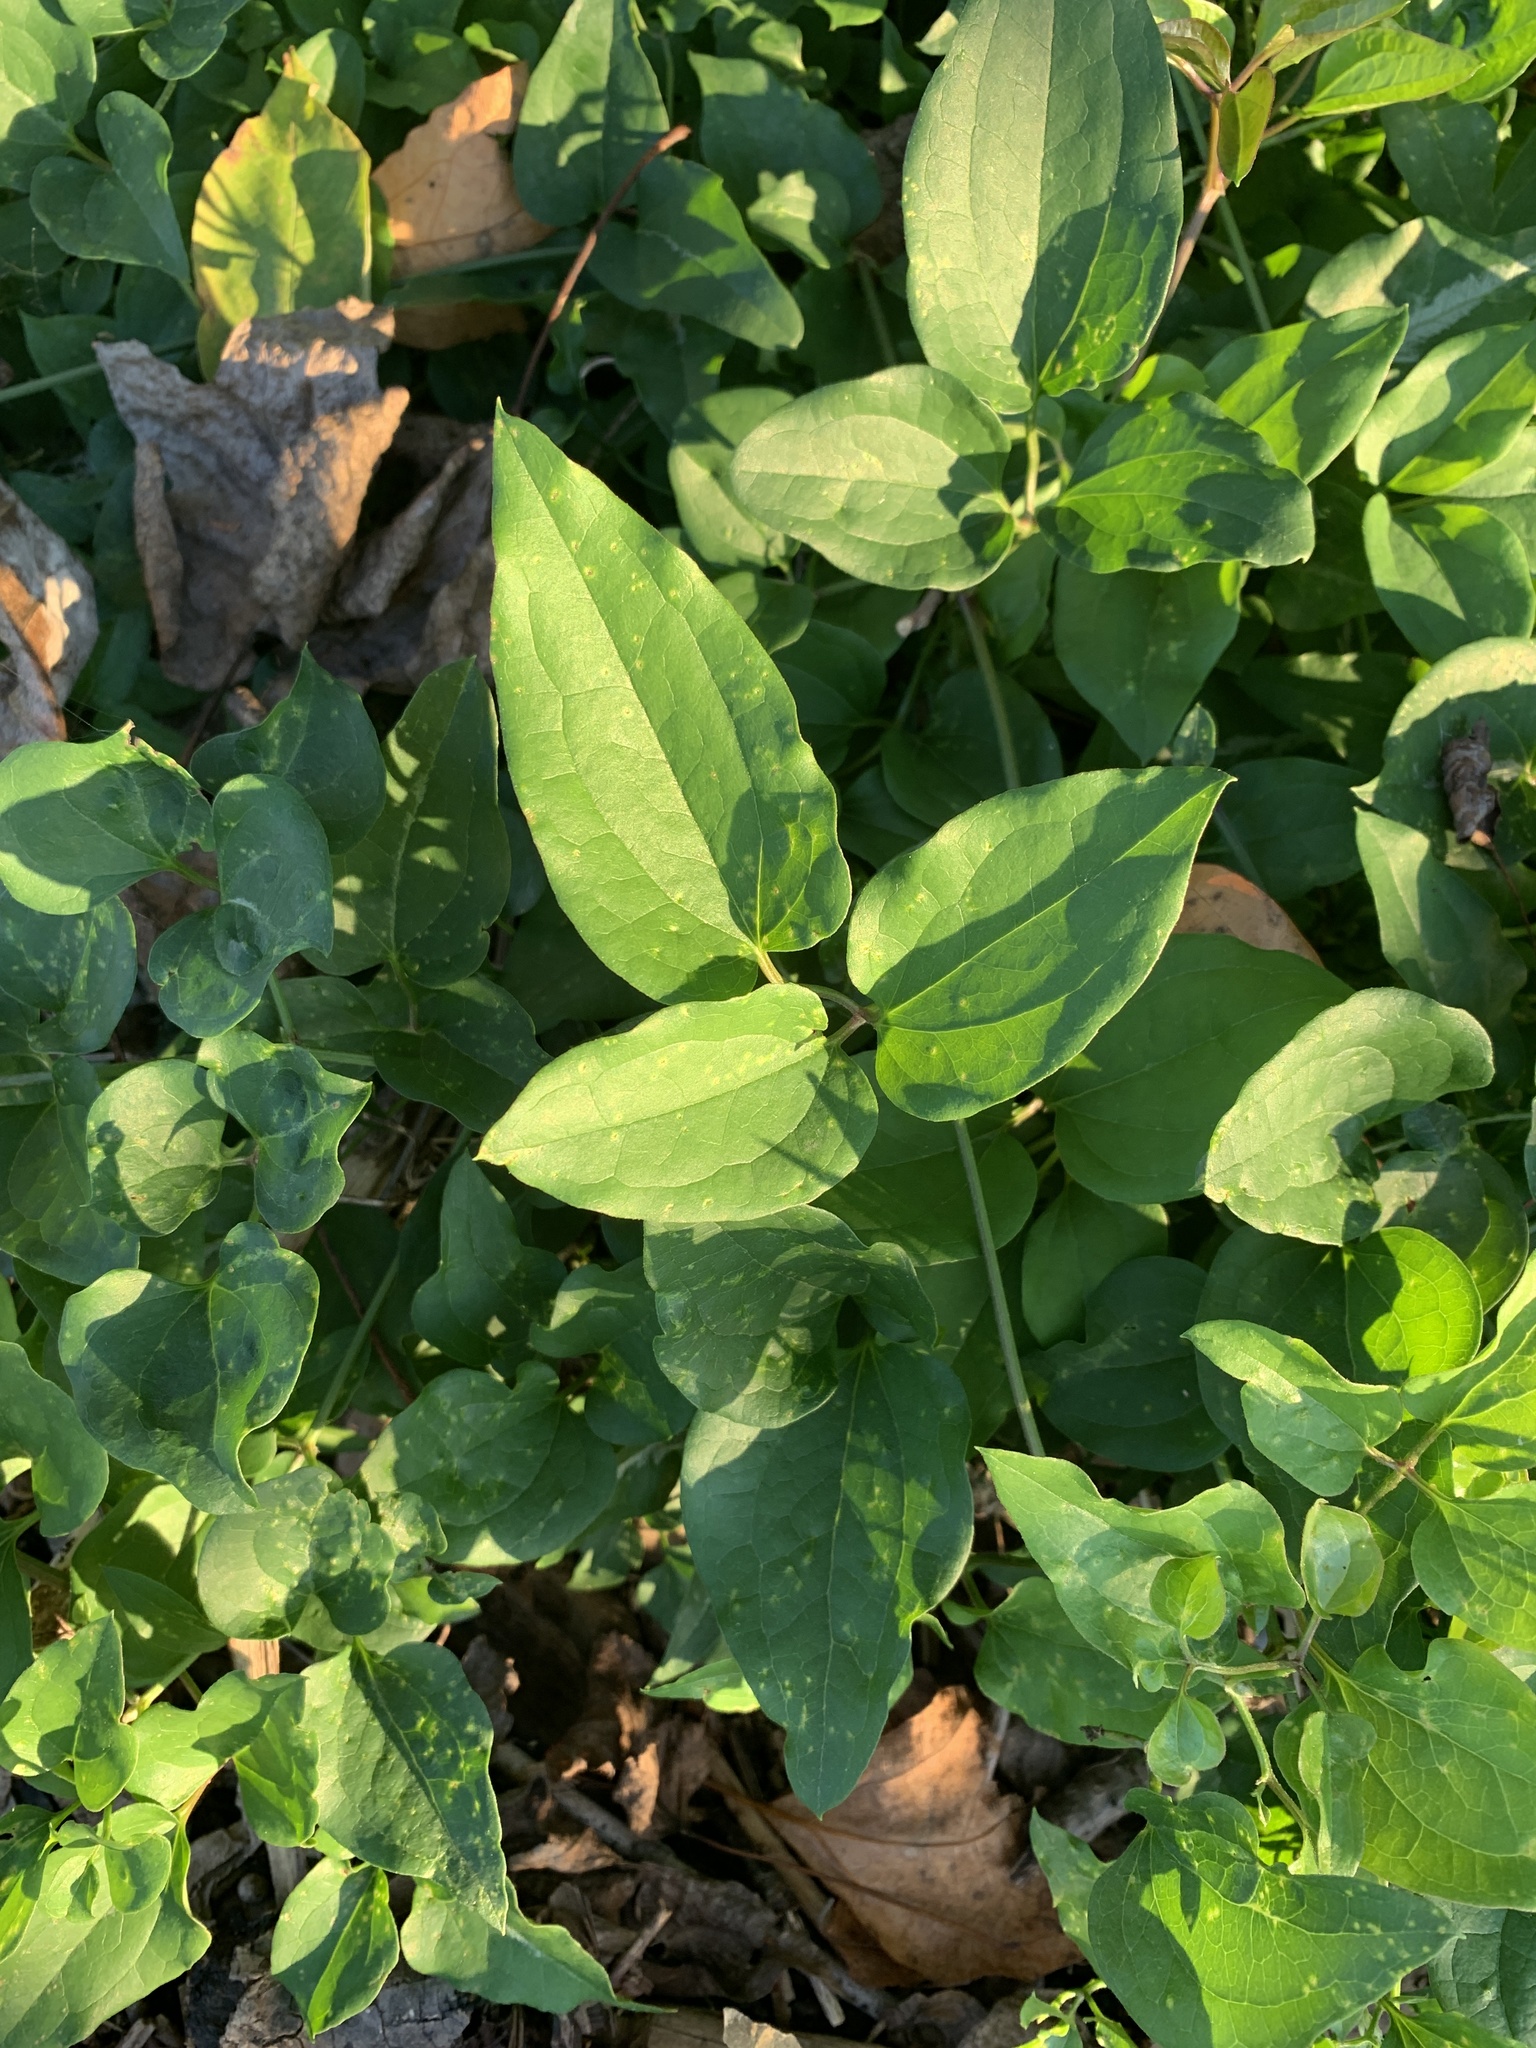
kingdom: Plantae
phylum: Tracheophyta
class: Magnoliopsida
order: Ranunculales
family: Ranunculaceae
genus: Clematis
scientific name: Clematis terniflora
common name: Sweet autumn clematis
